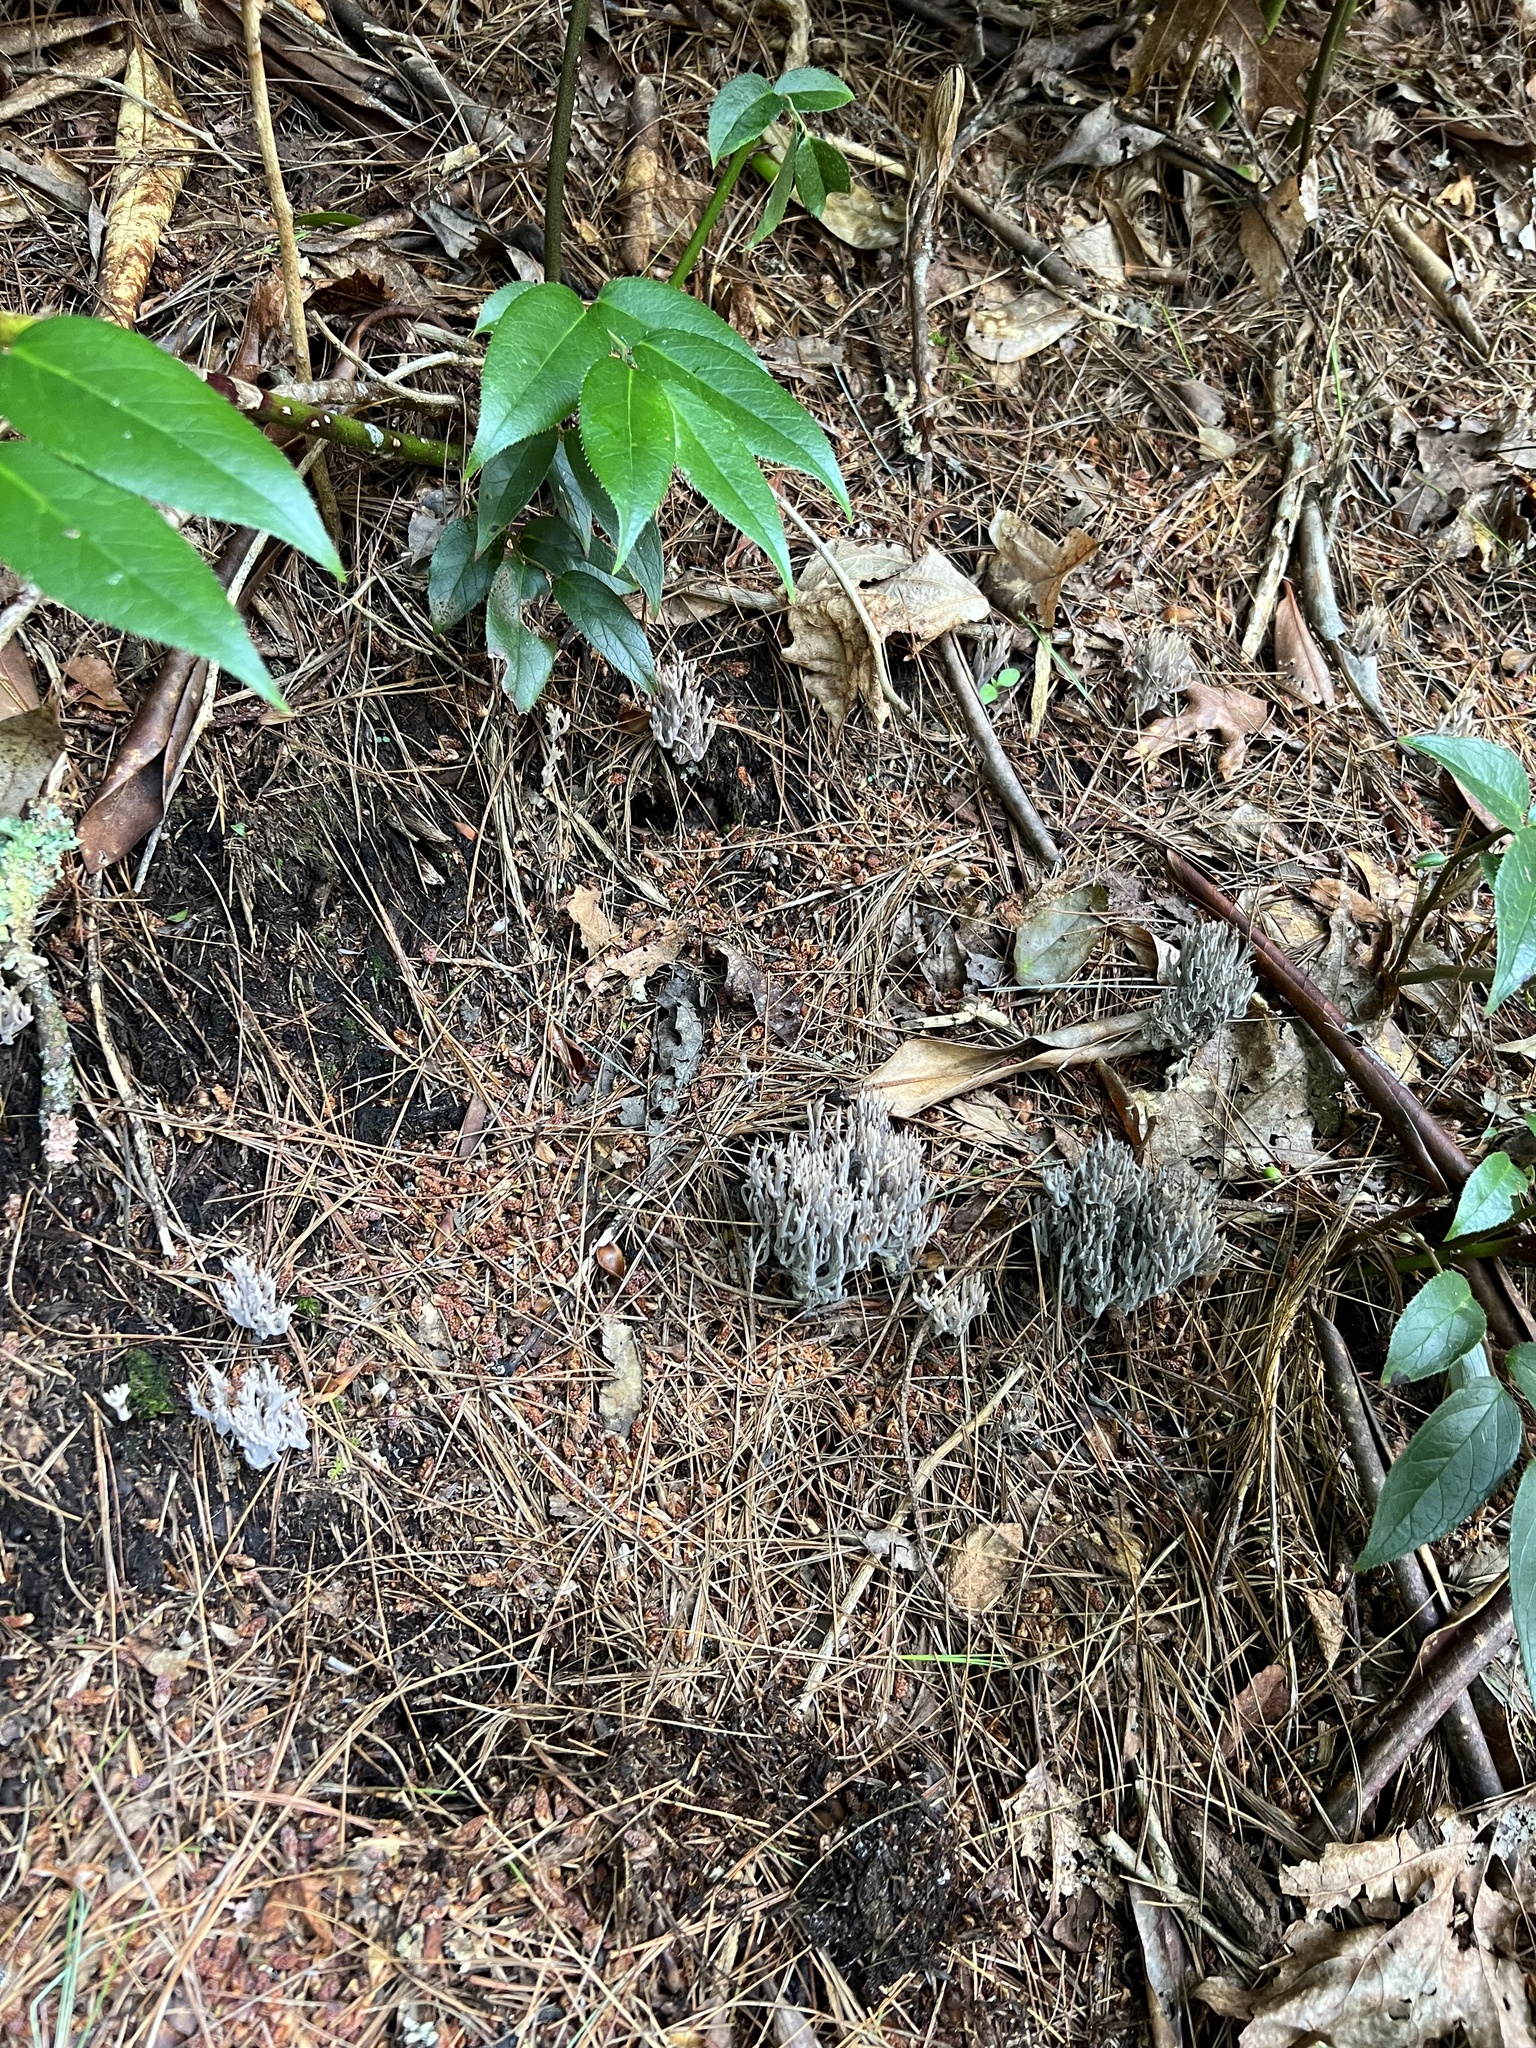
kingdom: Fungi
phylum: Basidiomycota
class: Agaricomycetes
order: Cantharellales
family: Hydnaceae
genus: Clavulina
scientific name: Clavulina cinerea
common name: Grey coral
